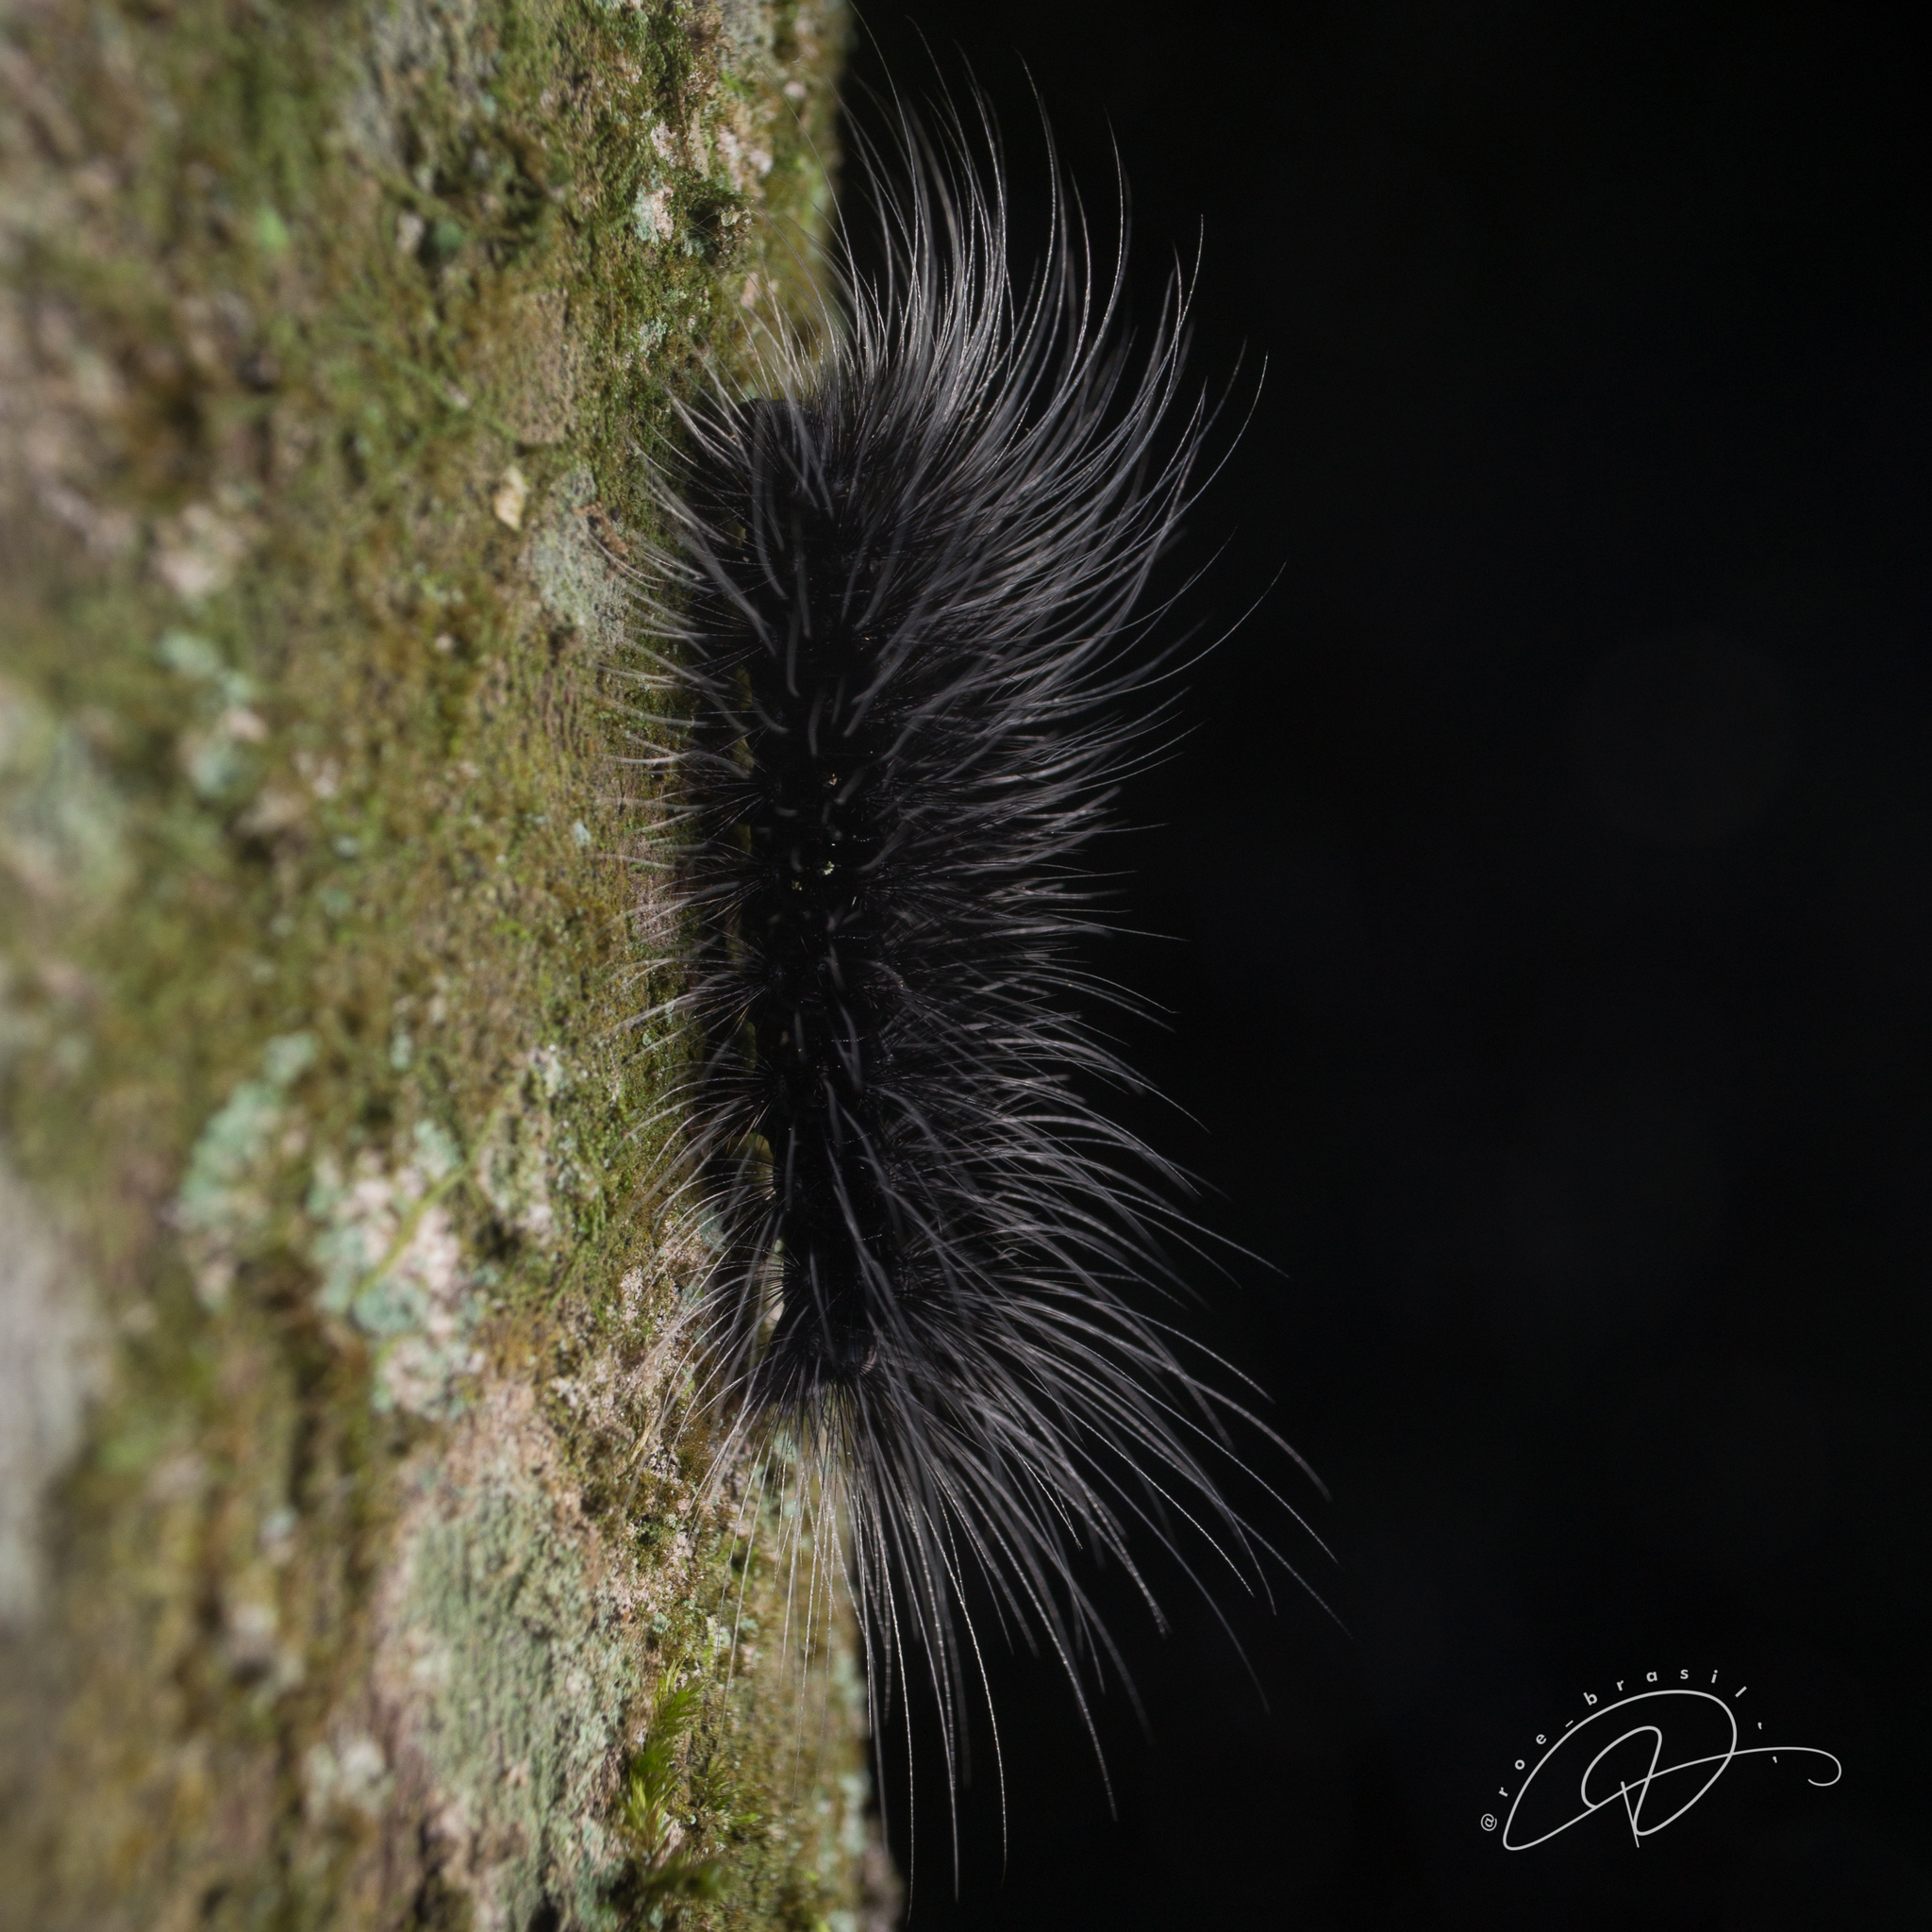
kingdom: Animalia
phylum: Arthropoda
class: Insecta
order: Lepidoptera
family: Erebidae
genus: Apistosia
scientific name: Apistosia judas
